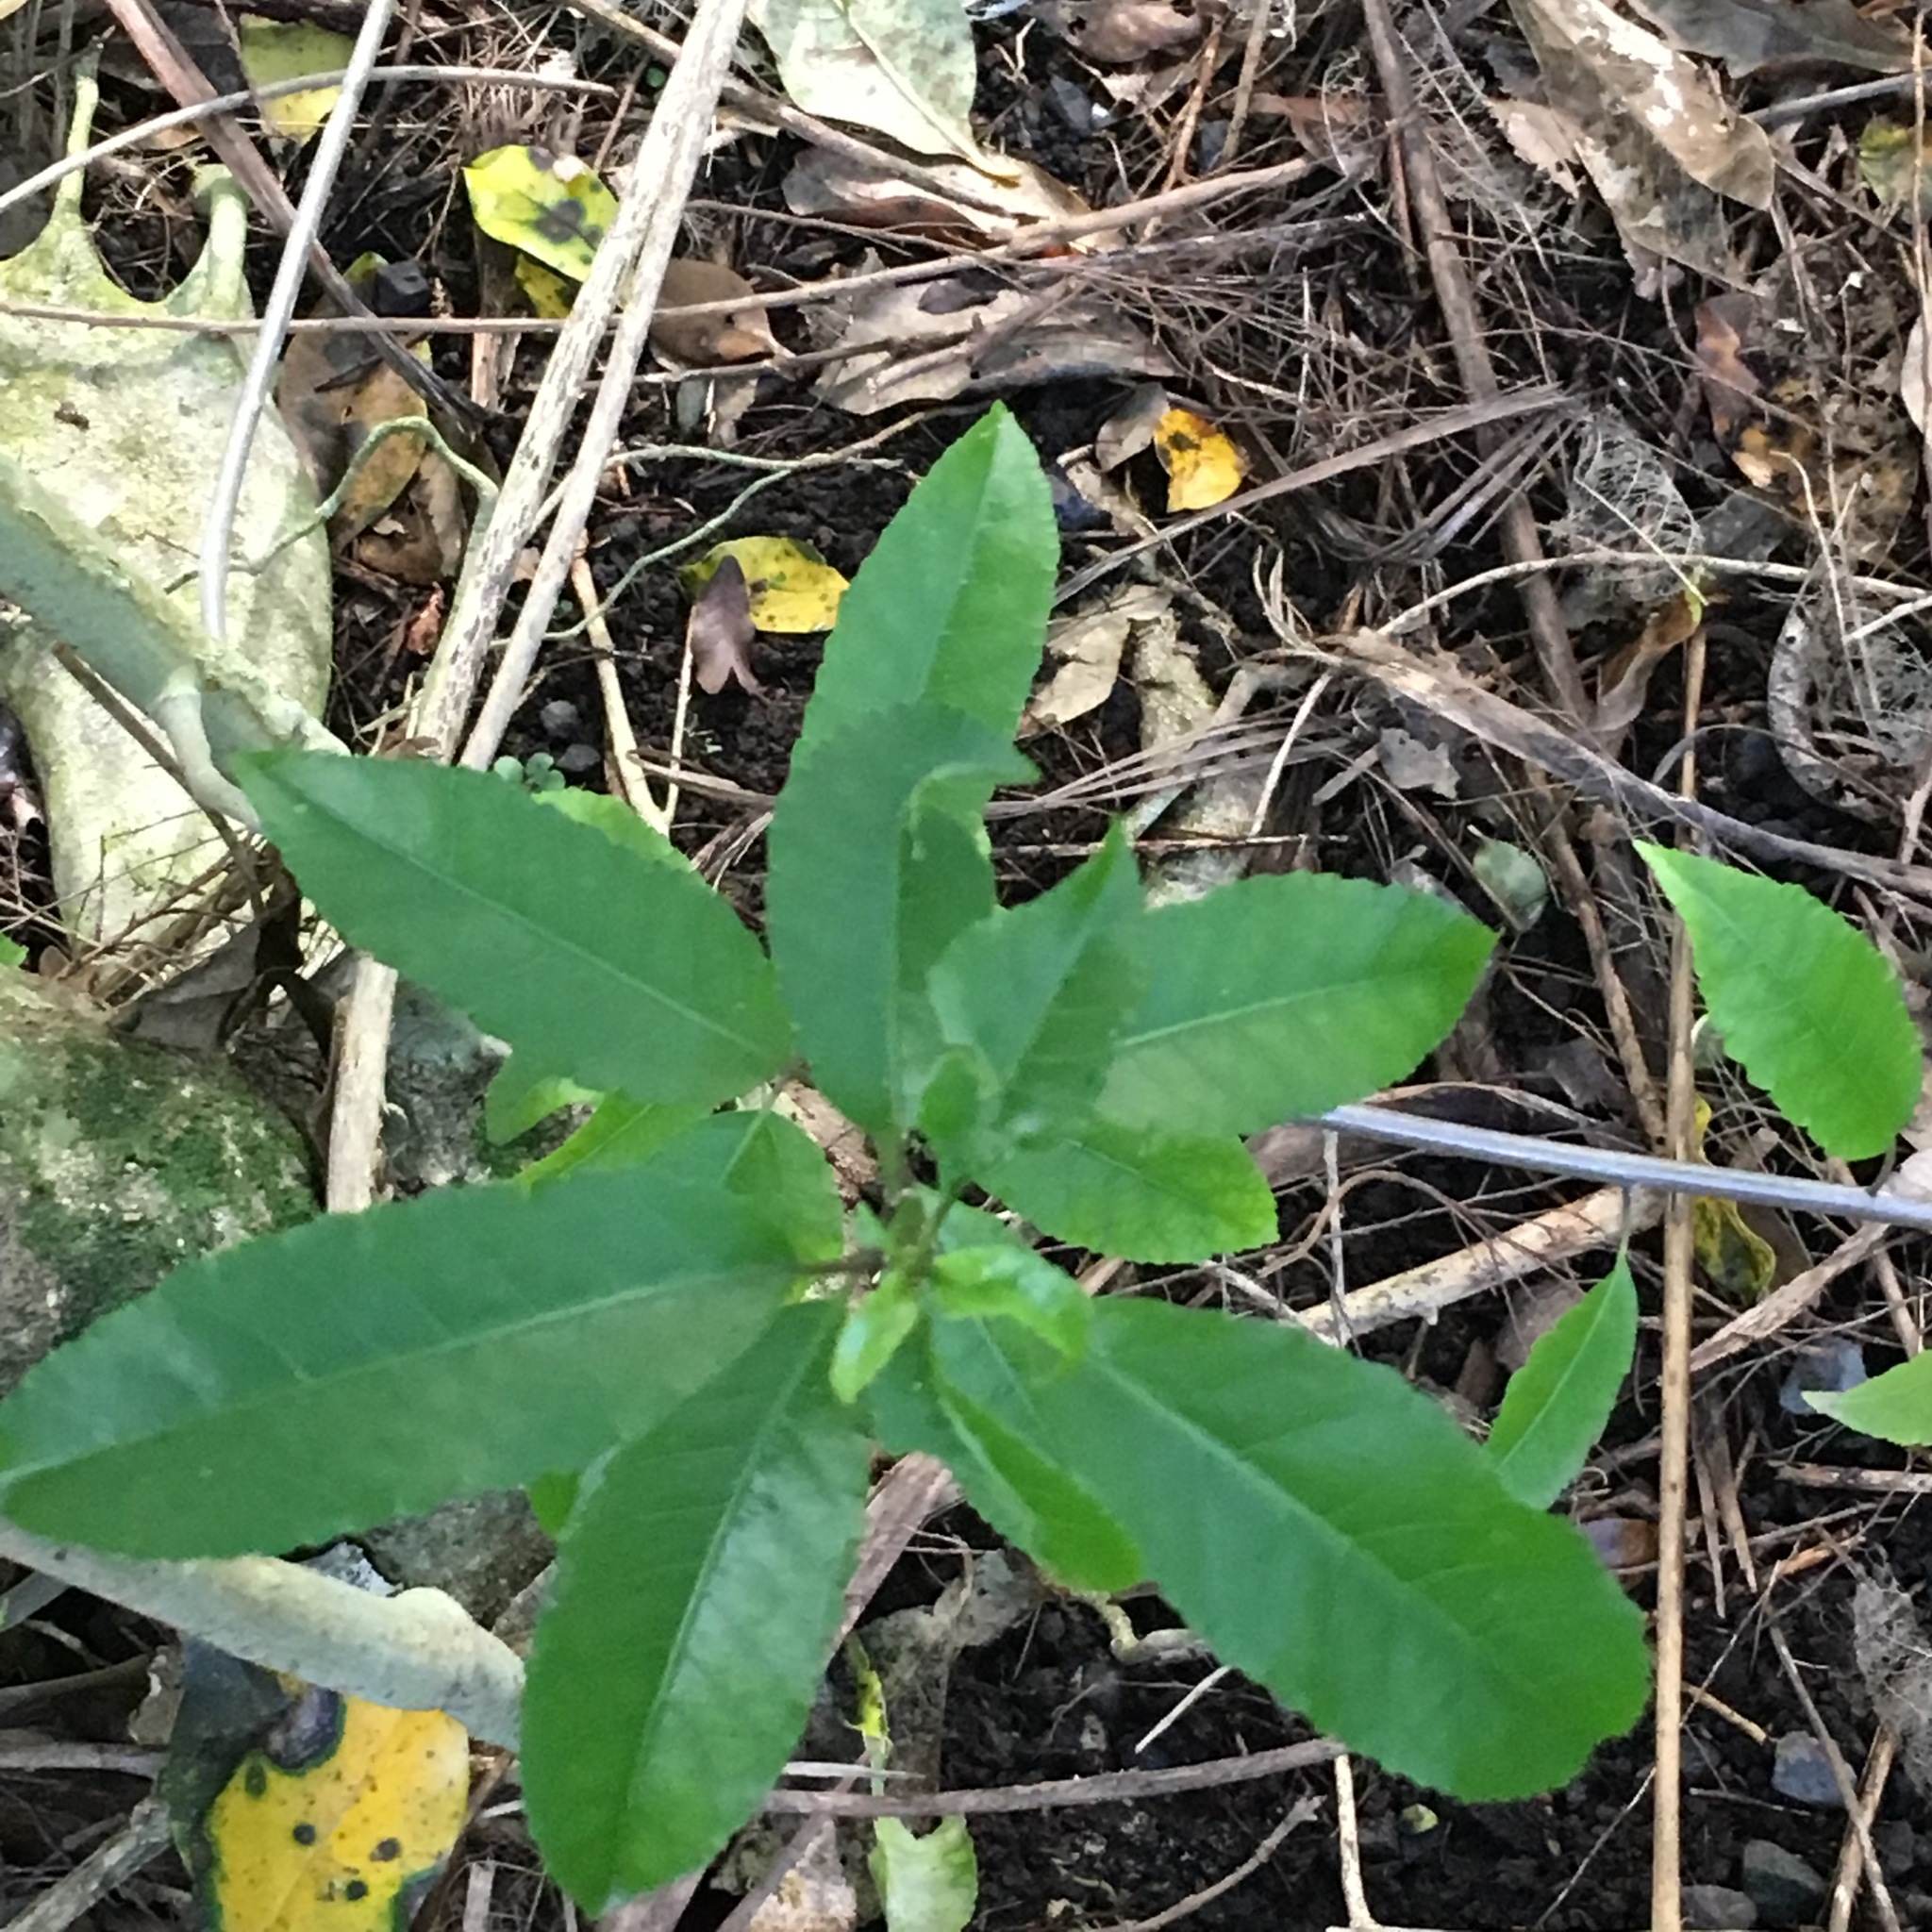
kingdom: Plantae
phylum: Tracheophyta
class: Magnoliopsida
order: Malpighiales
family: Violaceae
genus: Melicytus
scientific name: Melicytus ramiflorus
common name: Mahoe
